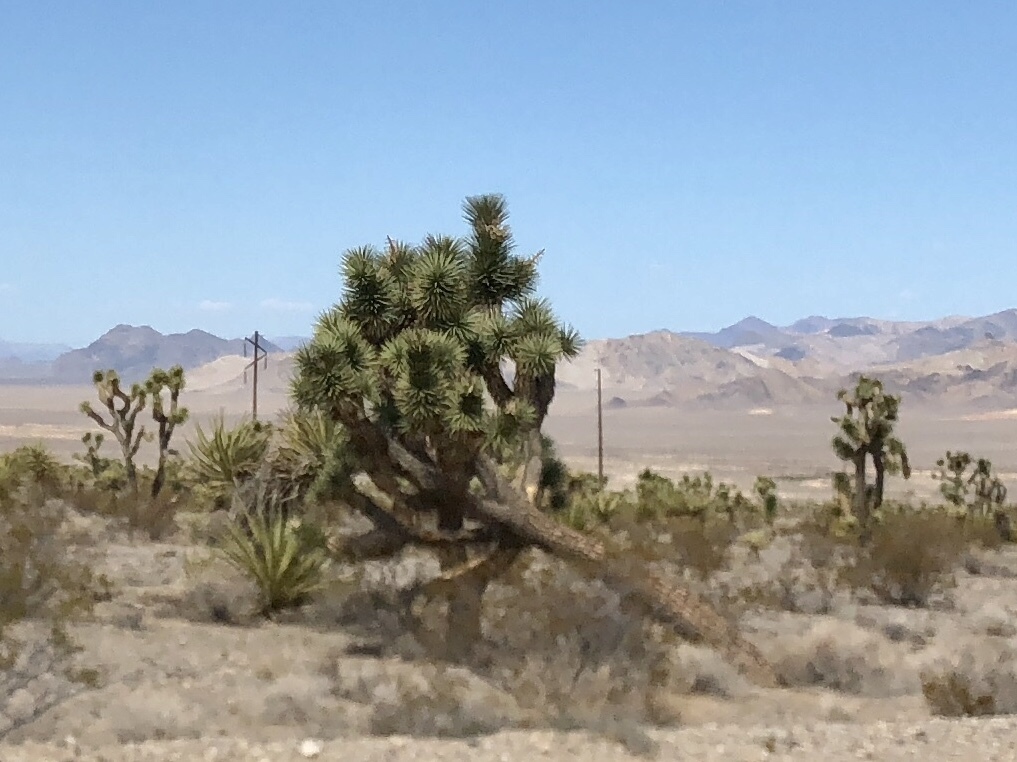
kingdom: Plantae
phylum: Tracheophyta
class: Liliopsida
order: Asparagales
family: Asparagaceae
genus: Yucca
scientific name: Yucca brevifolia
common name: Joshua tree
